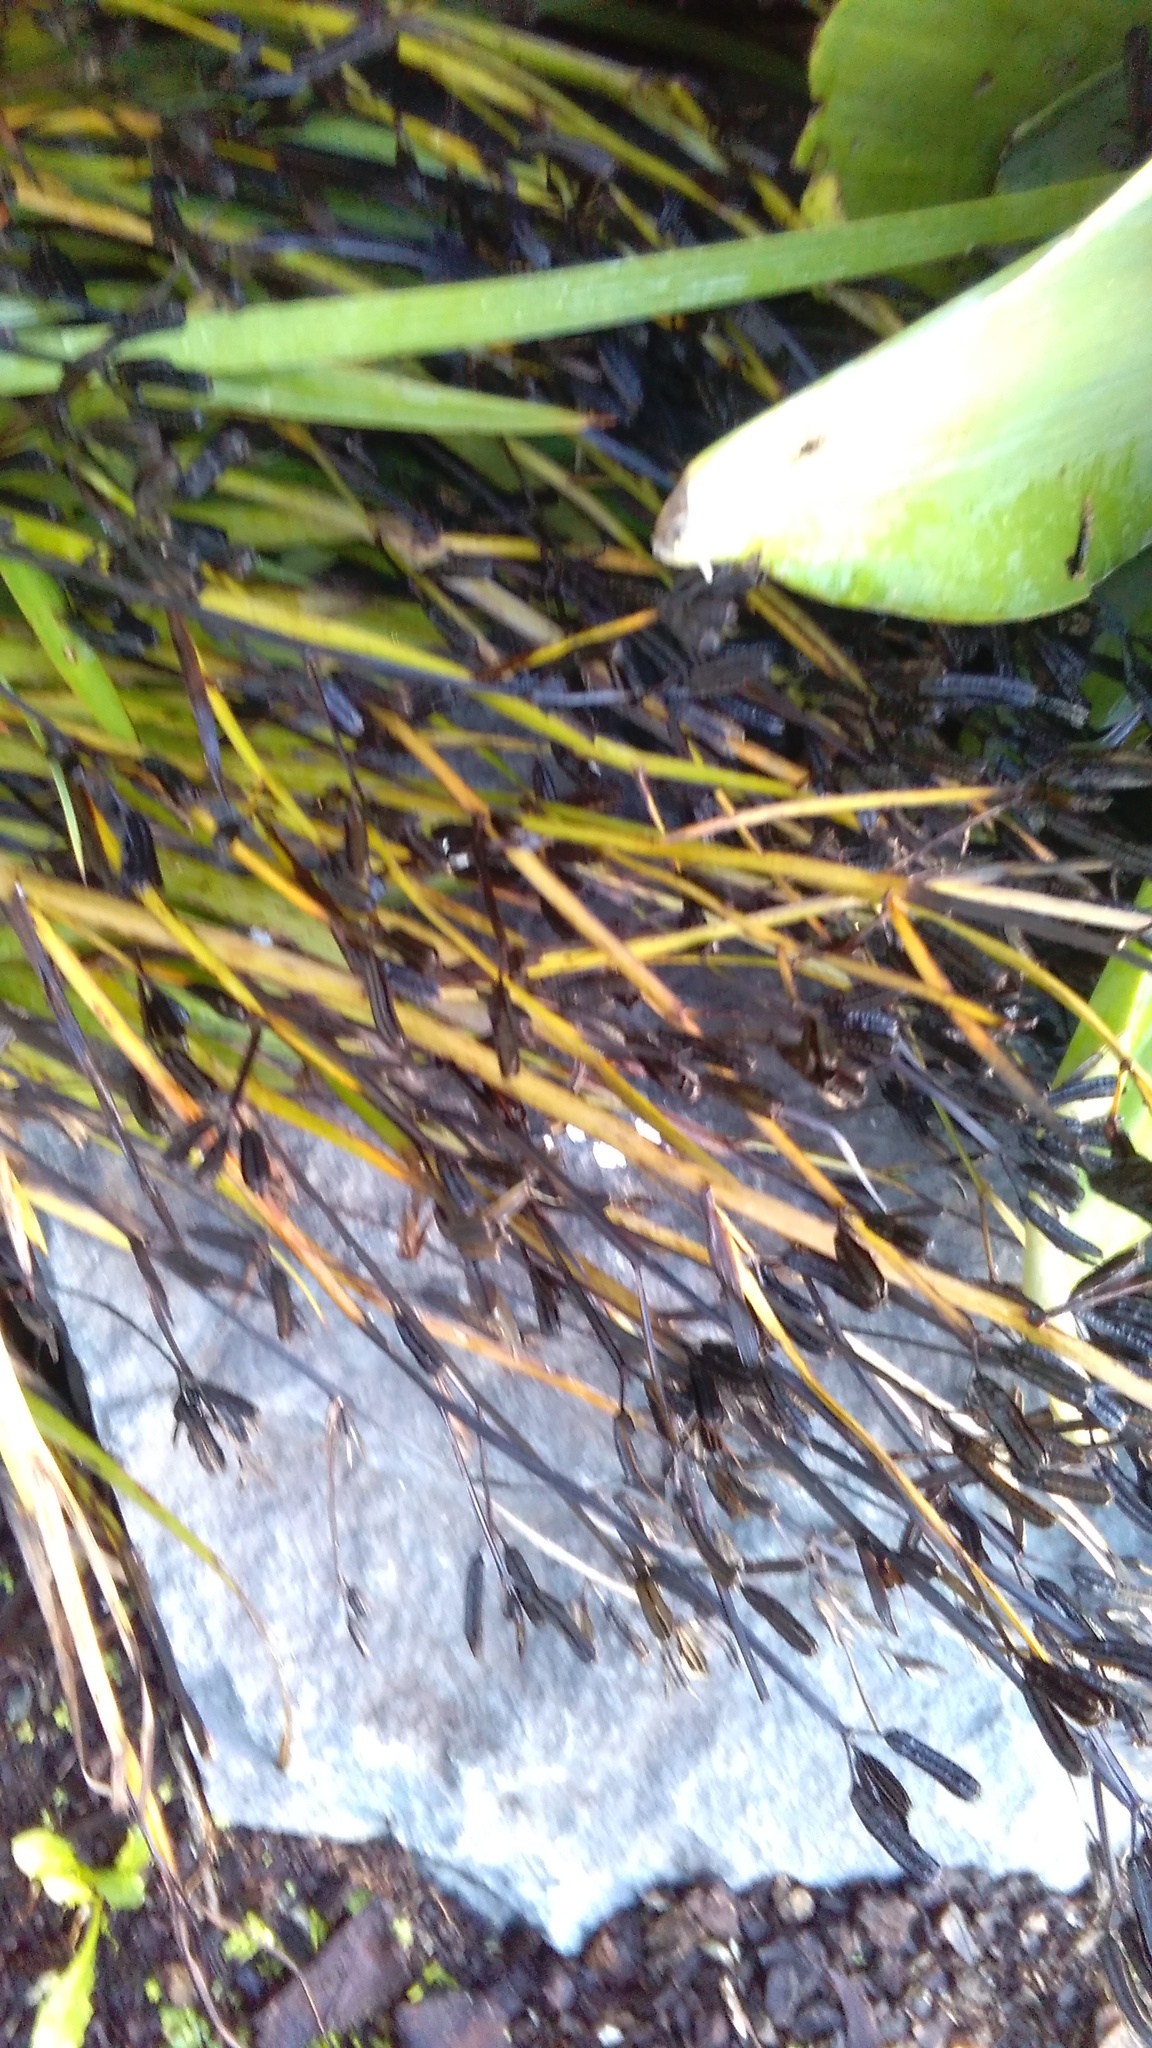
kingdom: Plantae
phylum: Tracheophyta
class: Liliopsida
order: Asparagales
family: Iridaceae
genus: Aristea
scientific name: Aristea ecklonii
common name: Blue corn-lily
